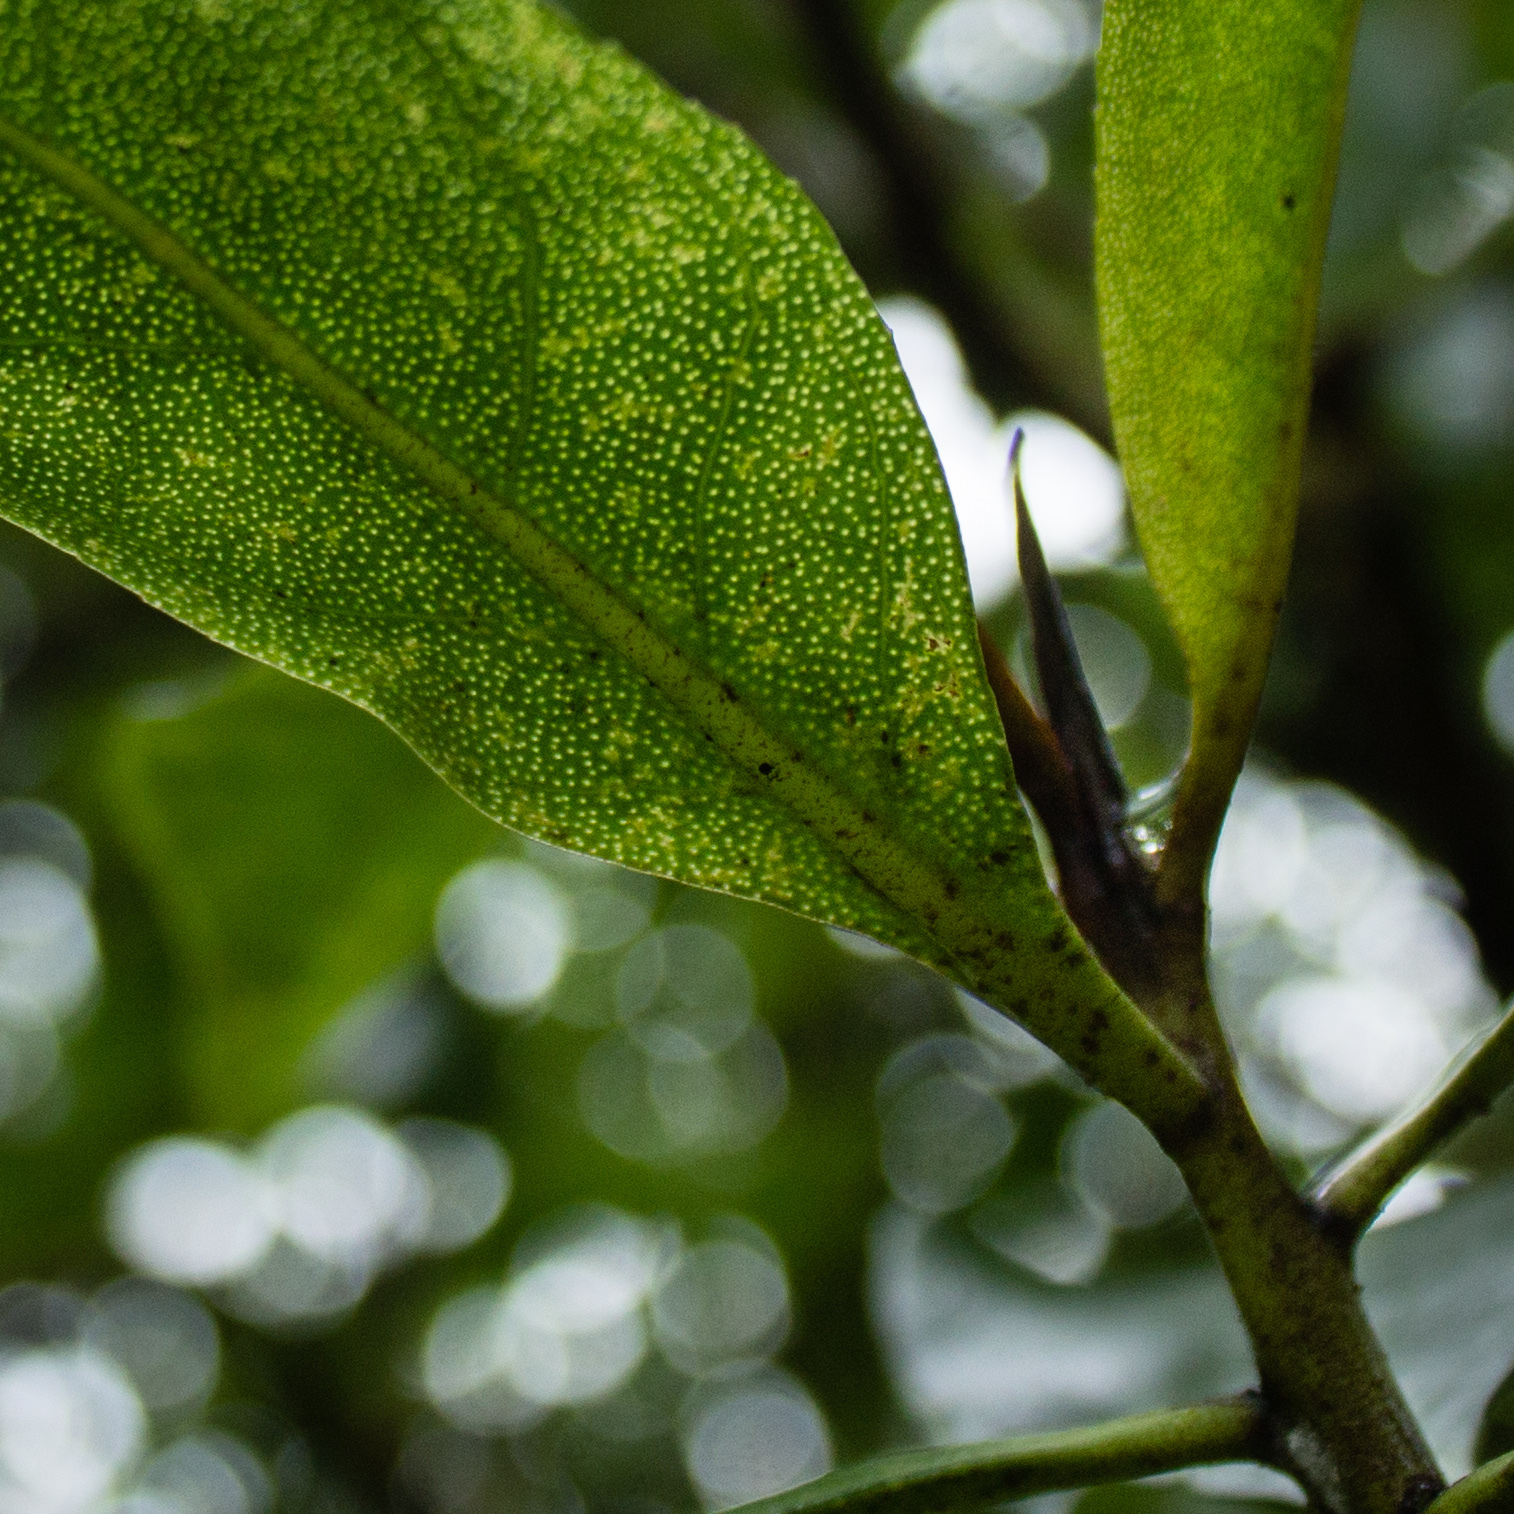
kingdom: Plantae
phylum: Tracheophyta
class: Magnoliopsida
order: Lamiales
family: Scrophulariaceae
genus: Myoporum
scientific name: Myoporum laetum
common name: Ngaio tree
